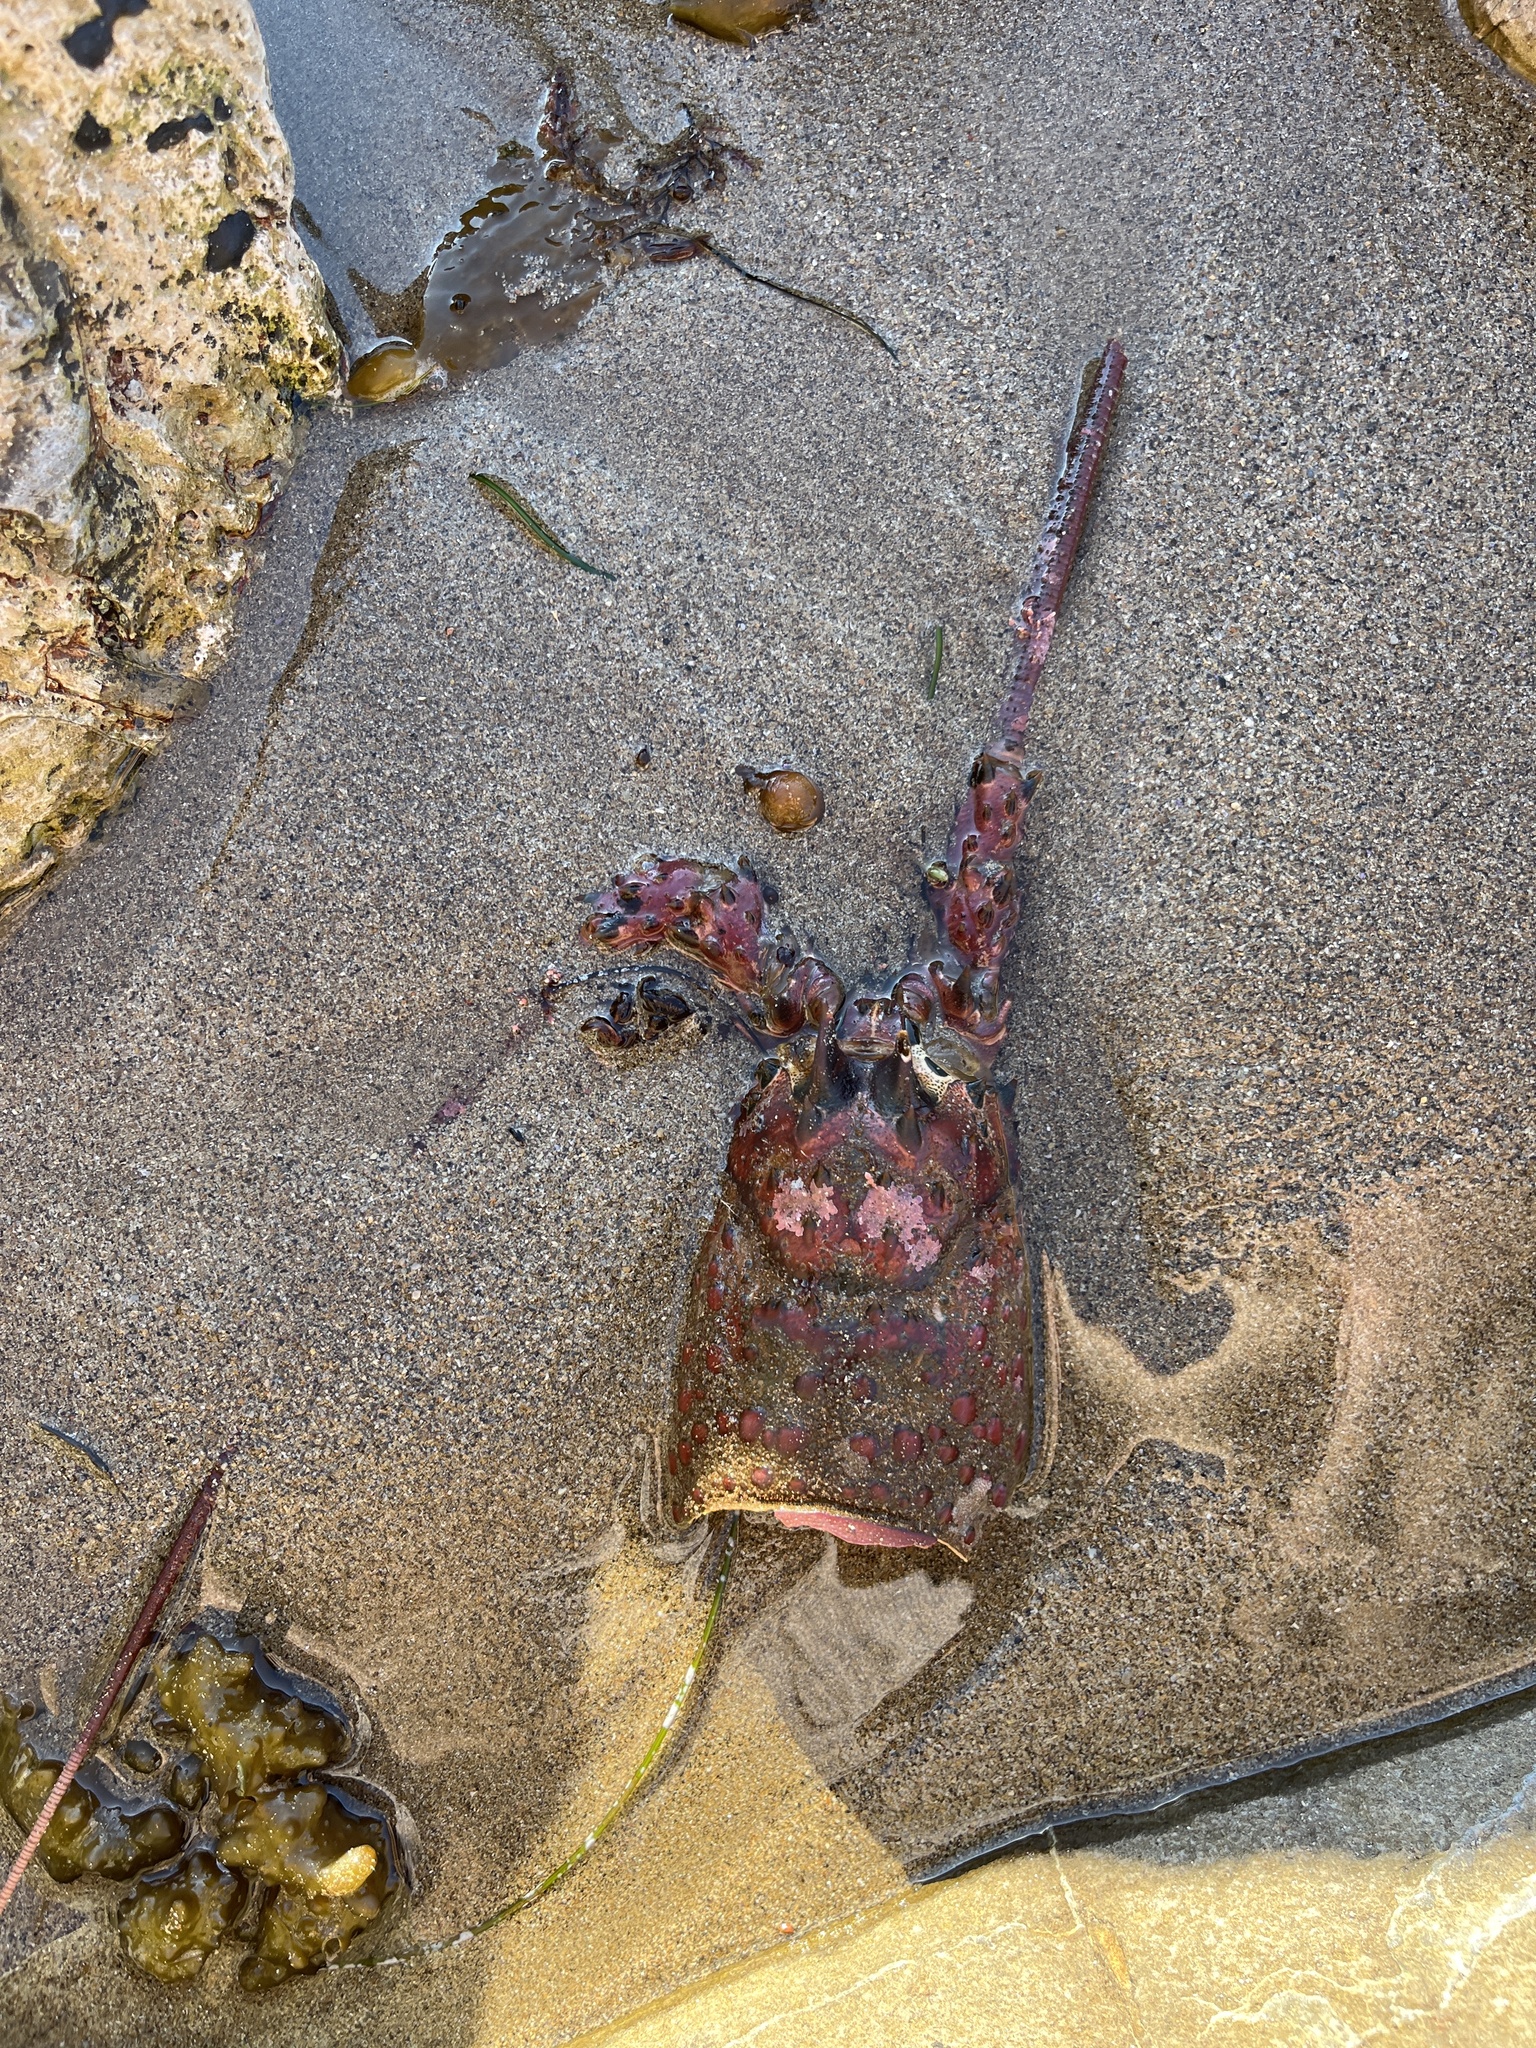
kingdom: Animalia
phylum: Arthropoda
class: Malacostraca
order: Decapoda
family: Palinuridae
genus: Panulirus
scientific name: Panulirus interruptus
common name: California spiny lobster
